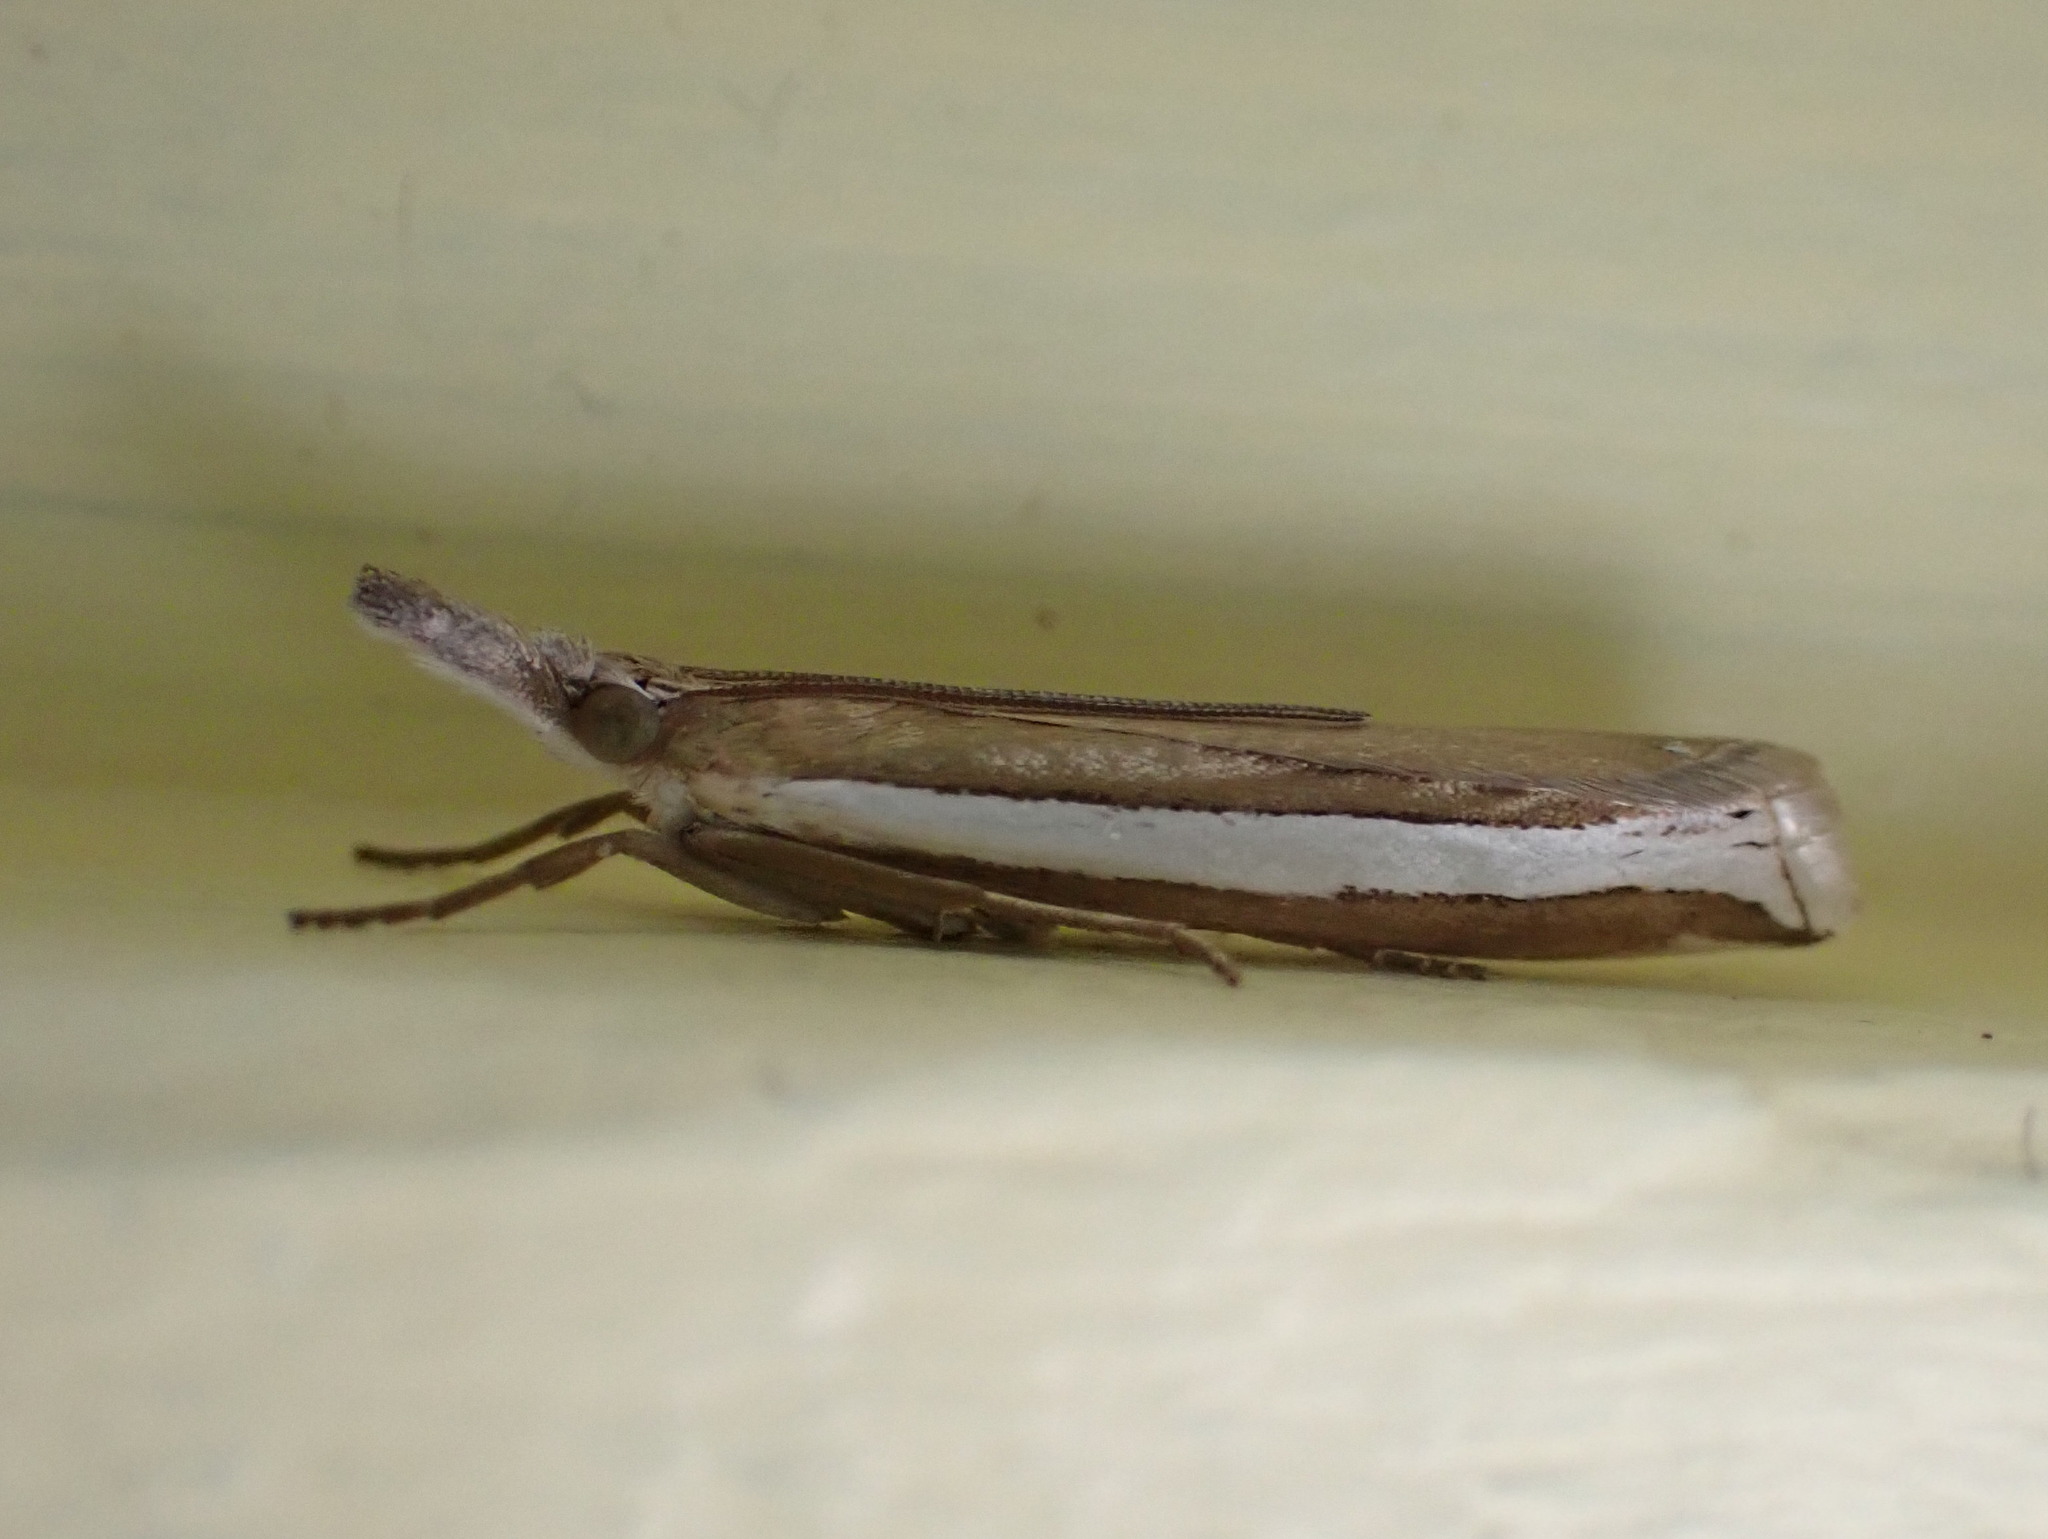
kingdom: Animalia
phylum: Arthropoda
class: Insecta
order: Lepidoptera
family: Crambidae
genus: Crambus
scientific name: Crambus unistriatellus
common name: Wide-stripe grass-veneer moth
